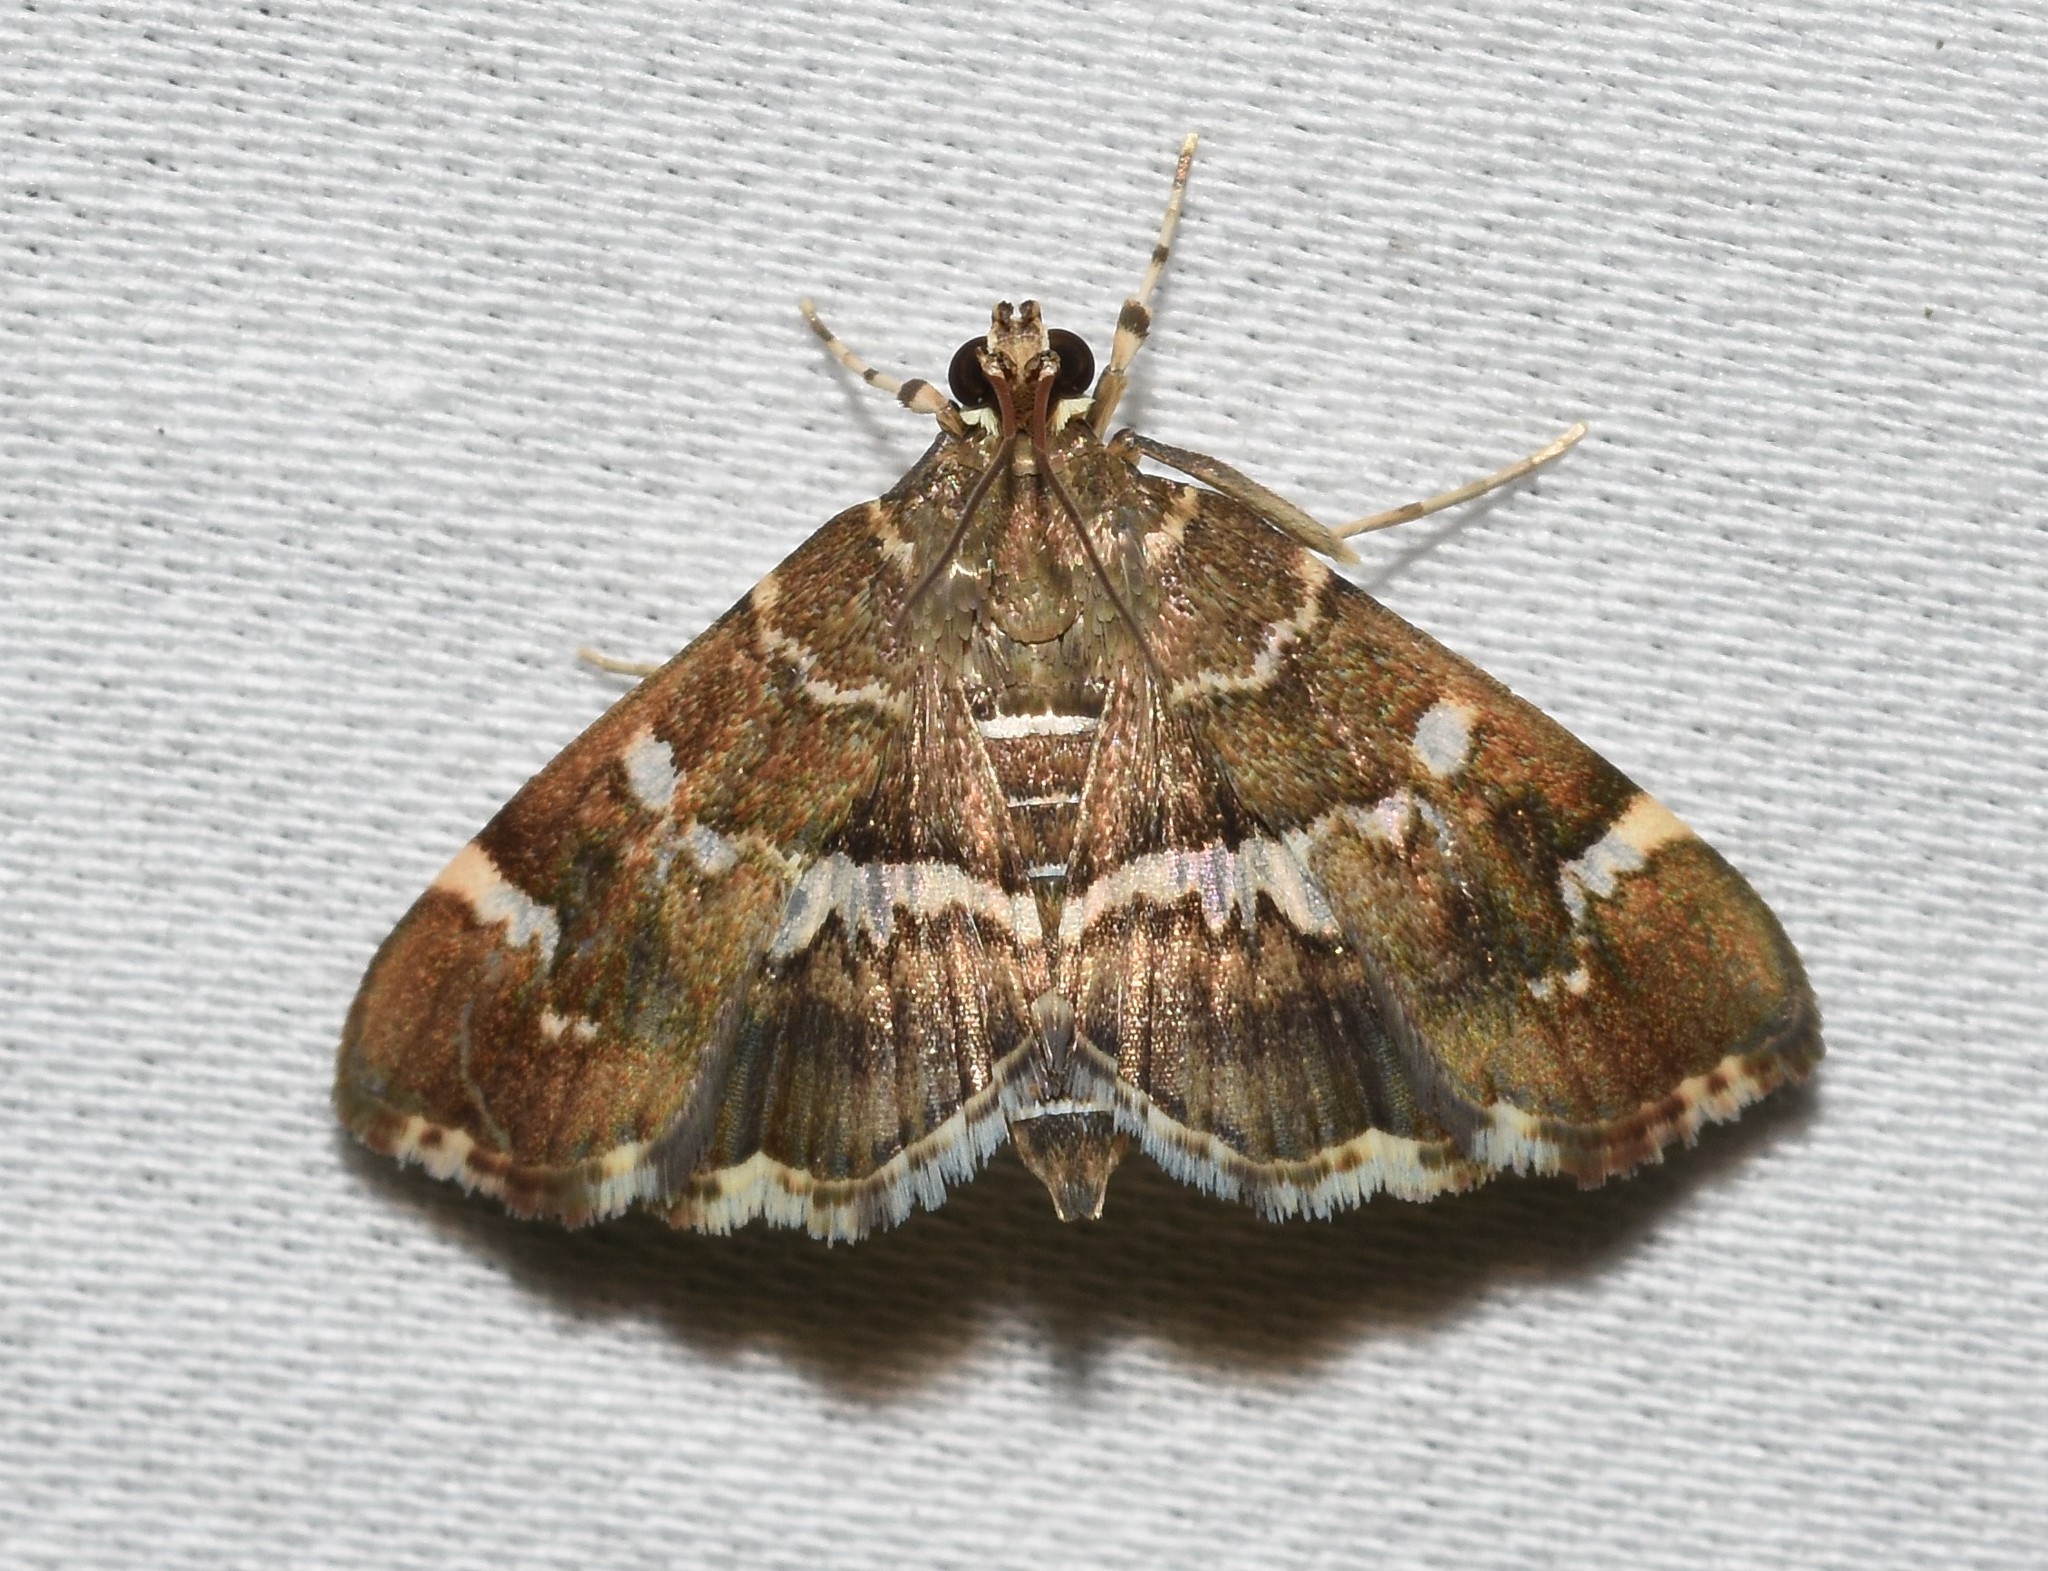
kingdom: Animalia
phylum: Arthropoda
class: Insecta
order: Lepidoptera
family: Crambidae
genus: Hymenia
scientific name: Hymenia perspectalis
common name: Spotted beet webworm
